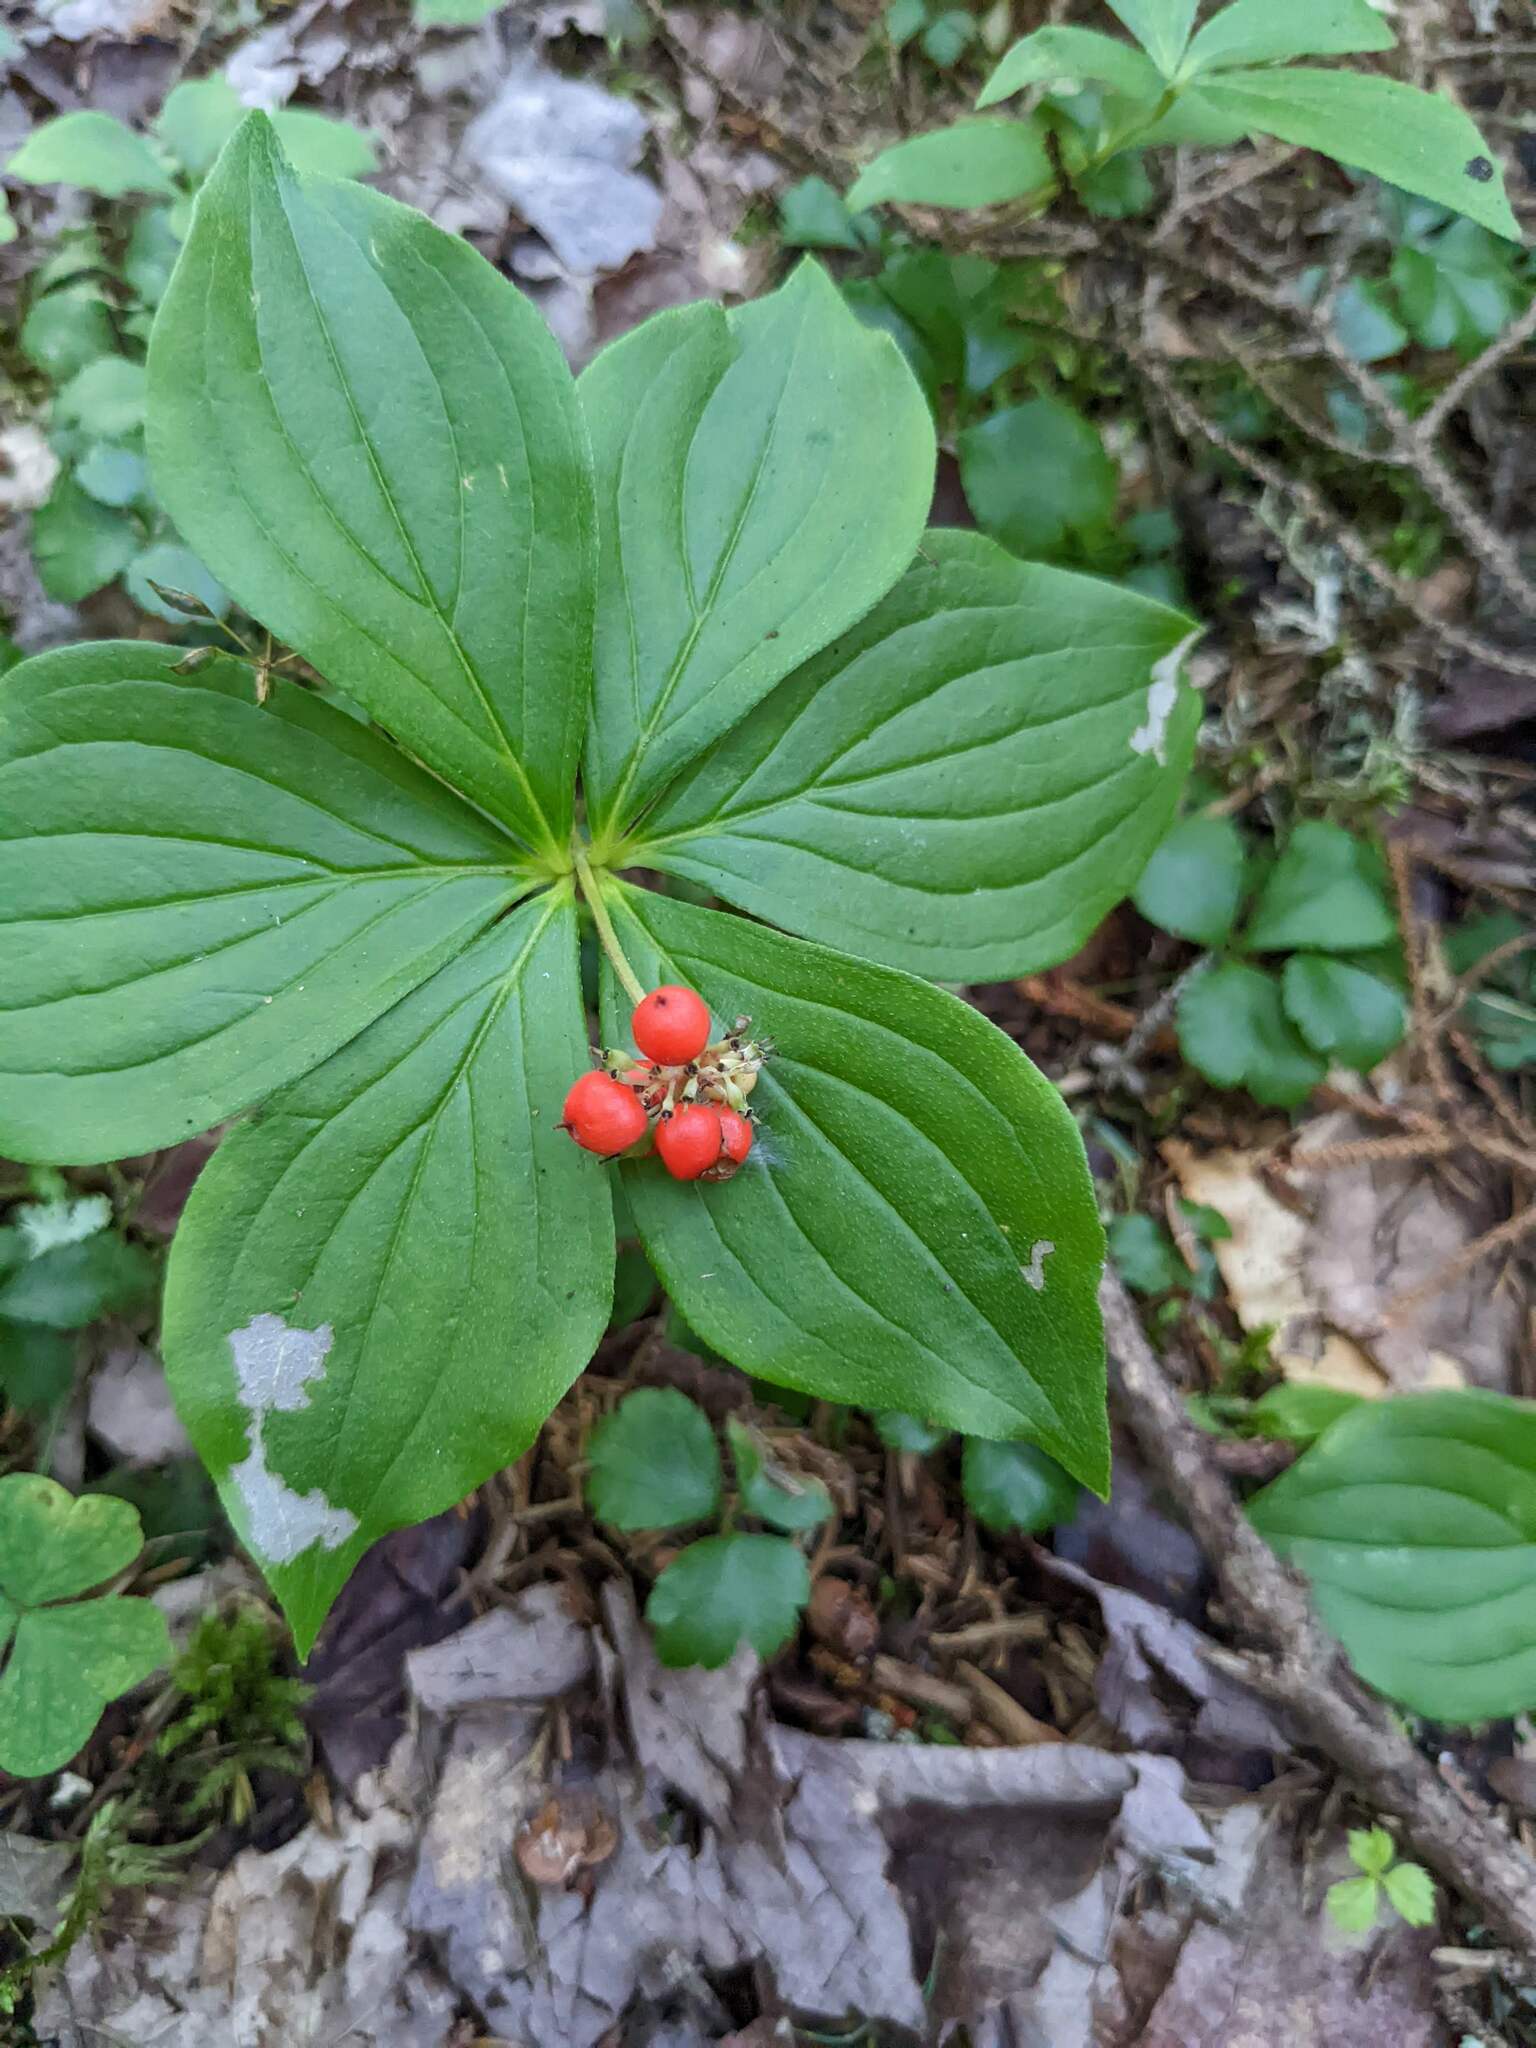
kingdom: Plantae
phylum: Tracheophyta
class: Magnoliopsida
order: Cornales
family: Cornaceae
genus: Cornus
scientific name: Cornus canadensis
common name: Creeping dogwood
